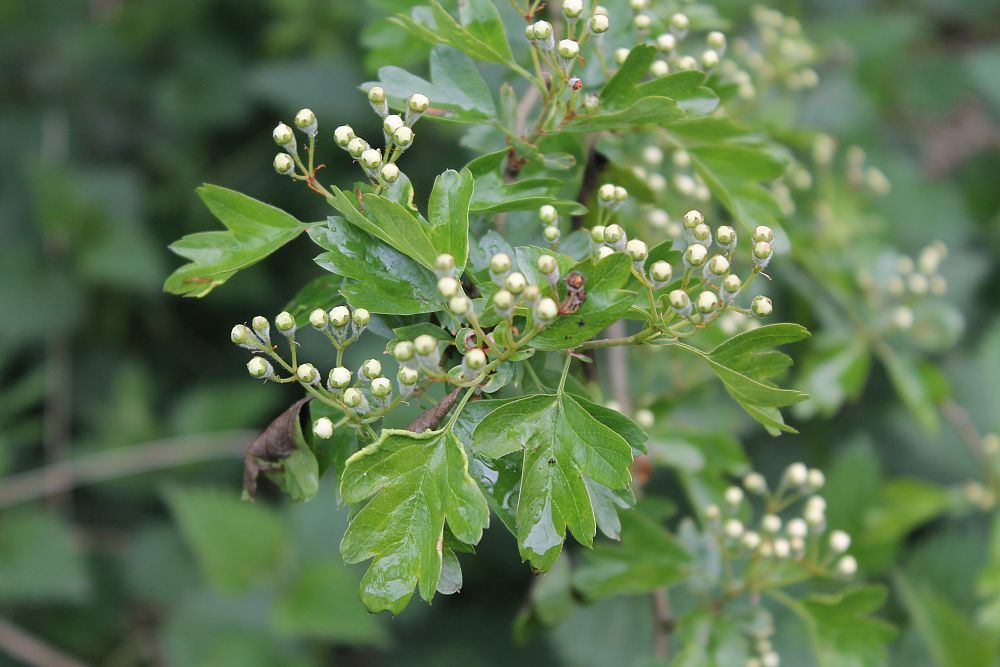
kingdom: Plantae
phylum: Tracheophyta
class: Magnoliopsida
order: Rosales
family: Rosaceae
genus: Crataegus
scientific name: Crataegus monogyna
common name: Hawthorn
